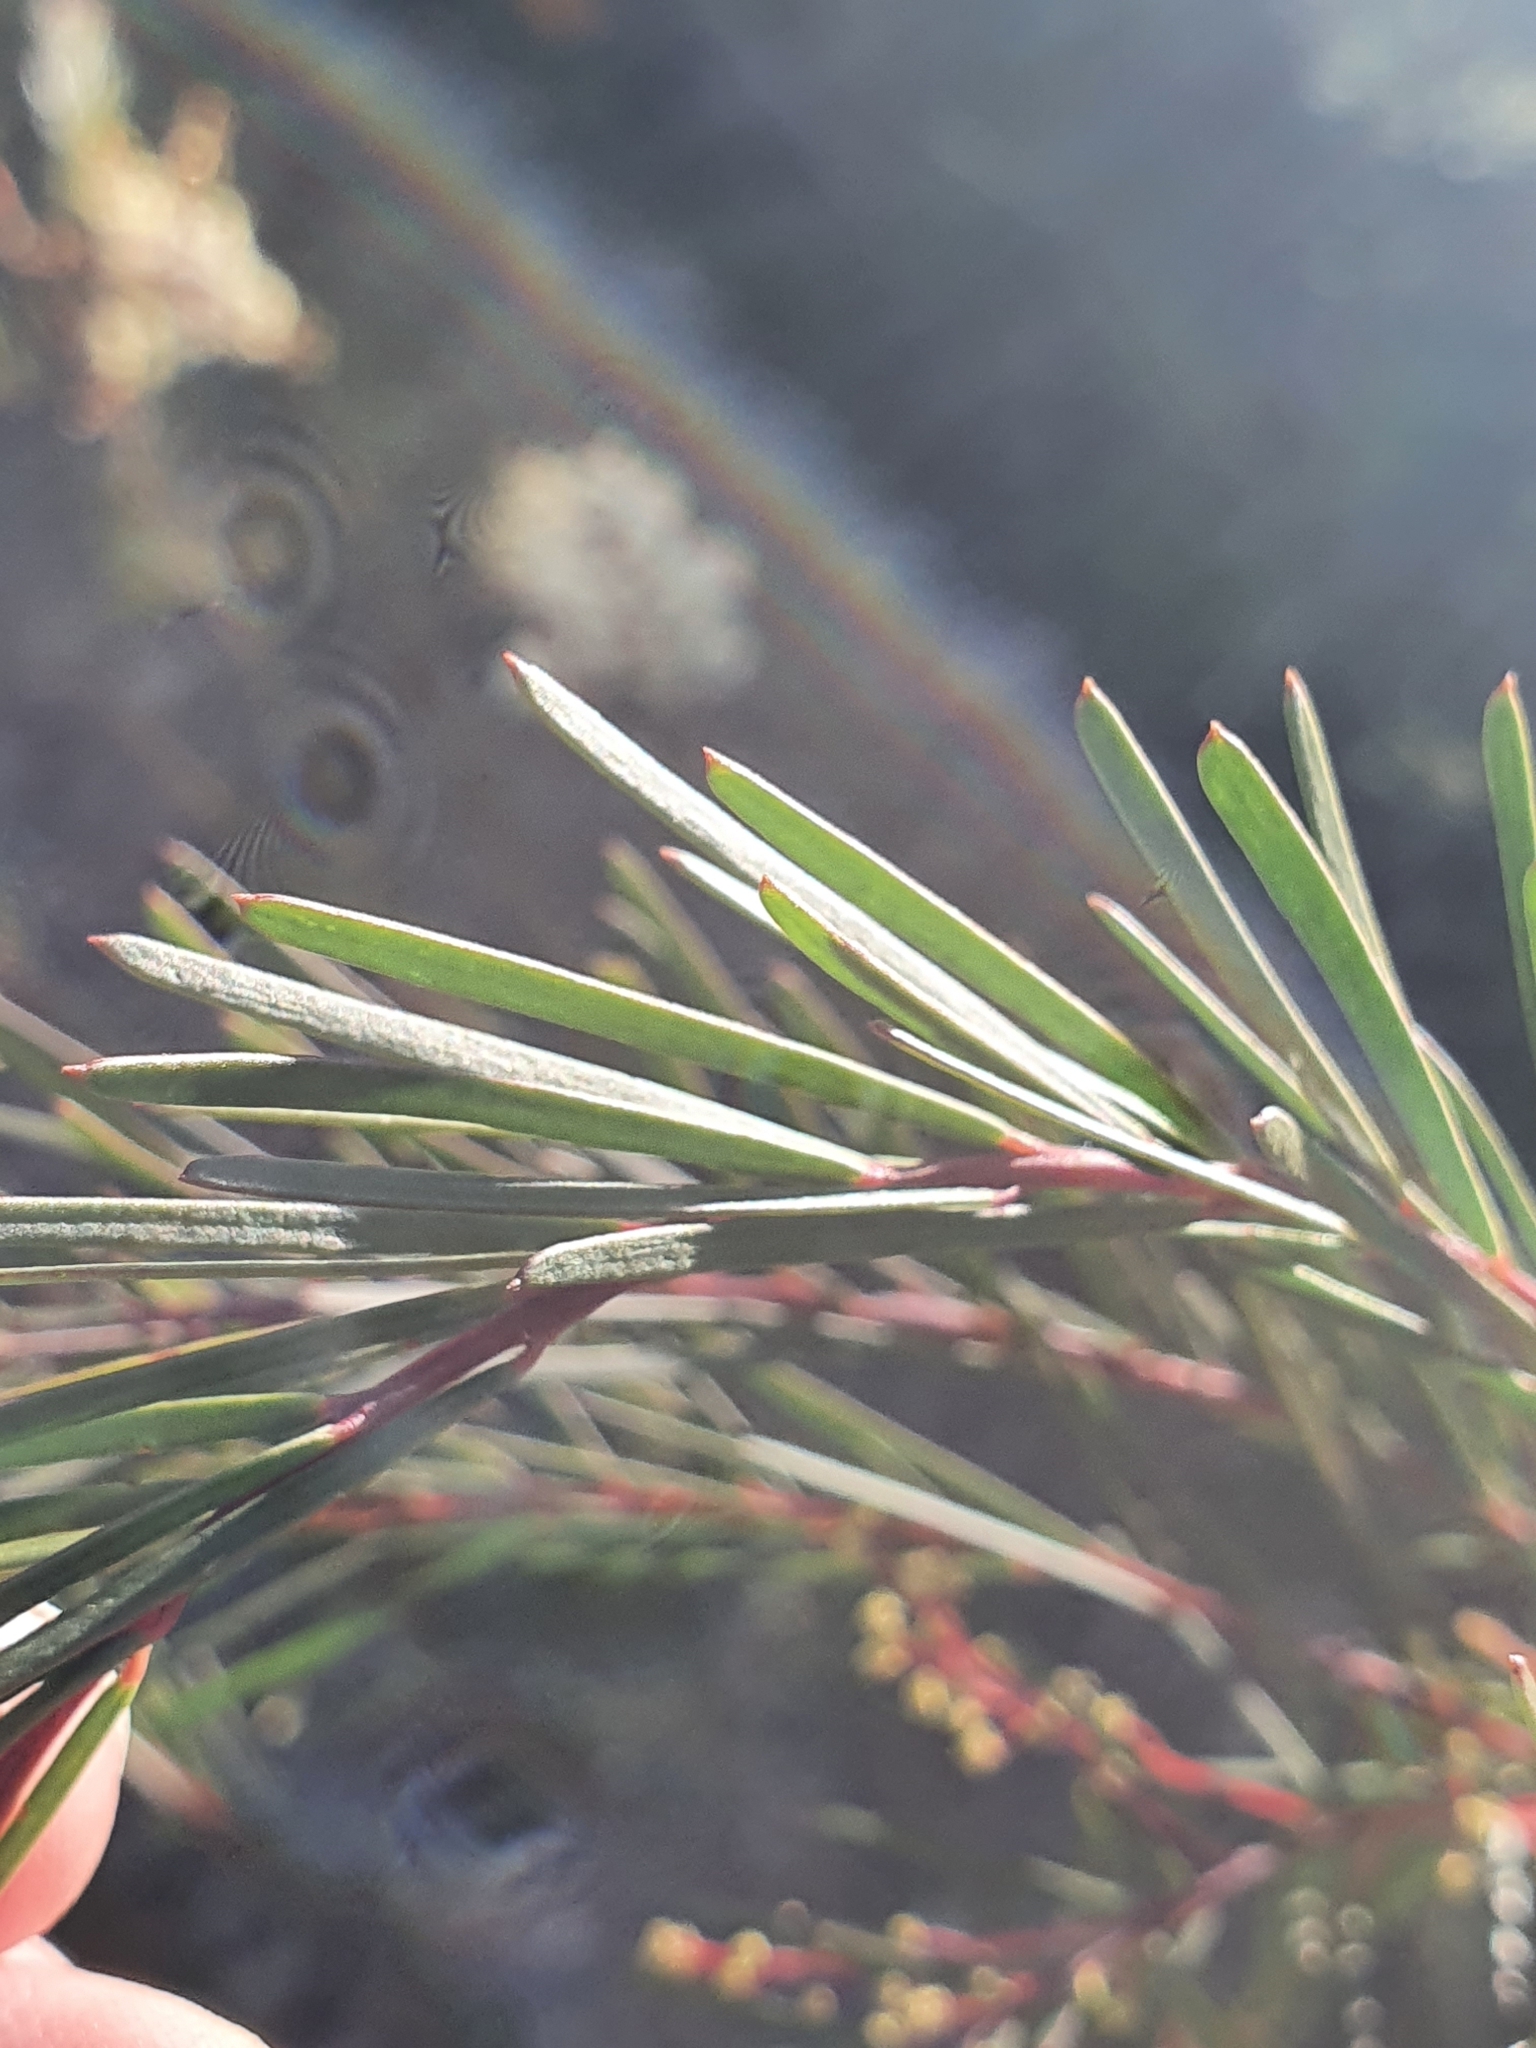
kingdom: Plantae
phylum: Tracheophyta
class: Magnoliopsida
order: Fabales
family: Fabaceae
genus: Acacia
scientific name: Acacia linifolia
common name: White wattle
